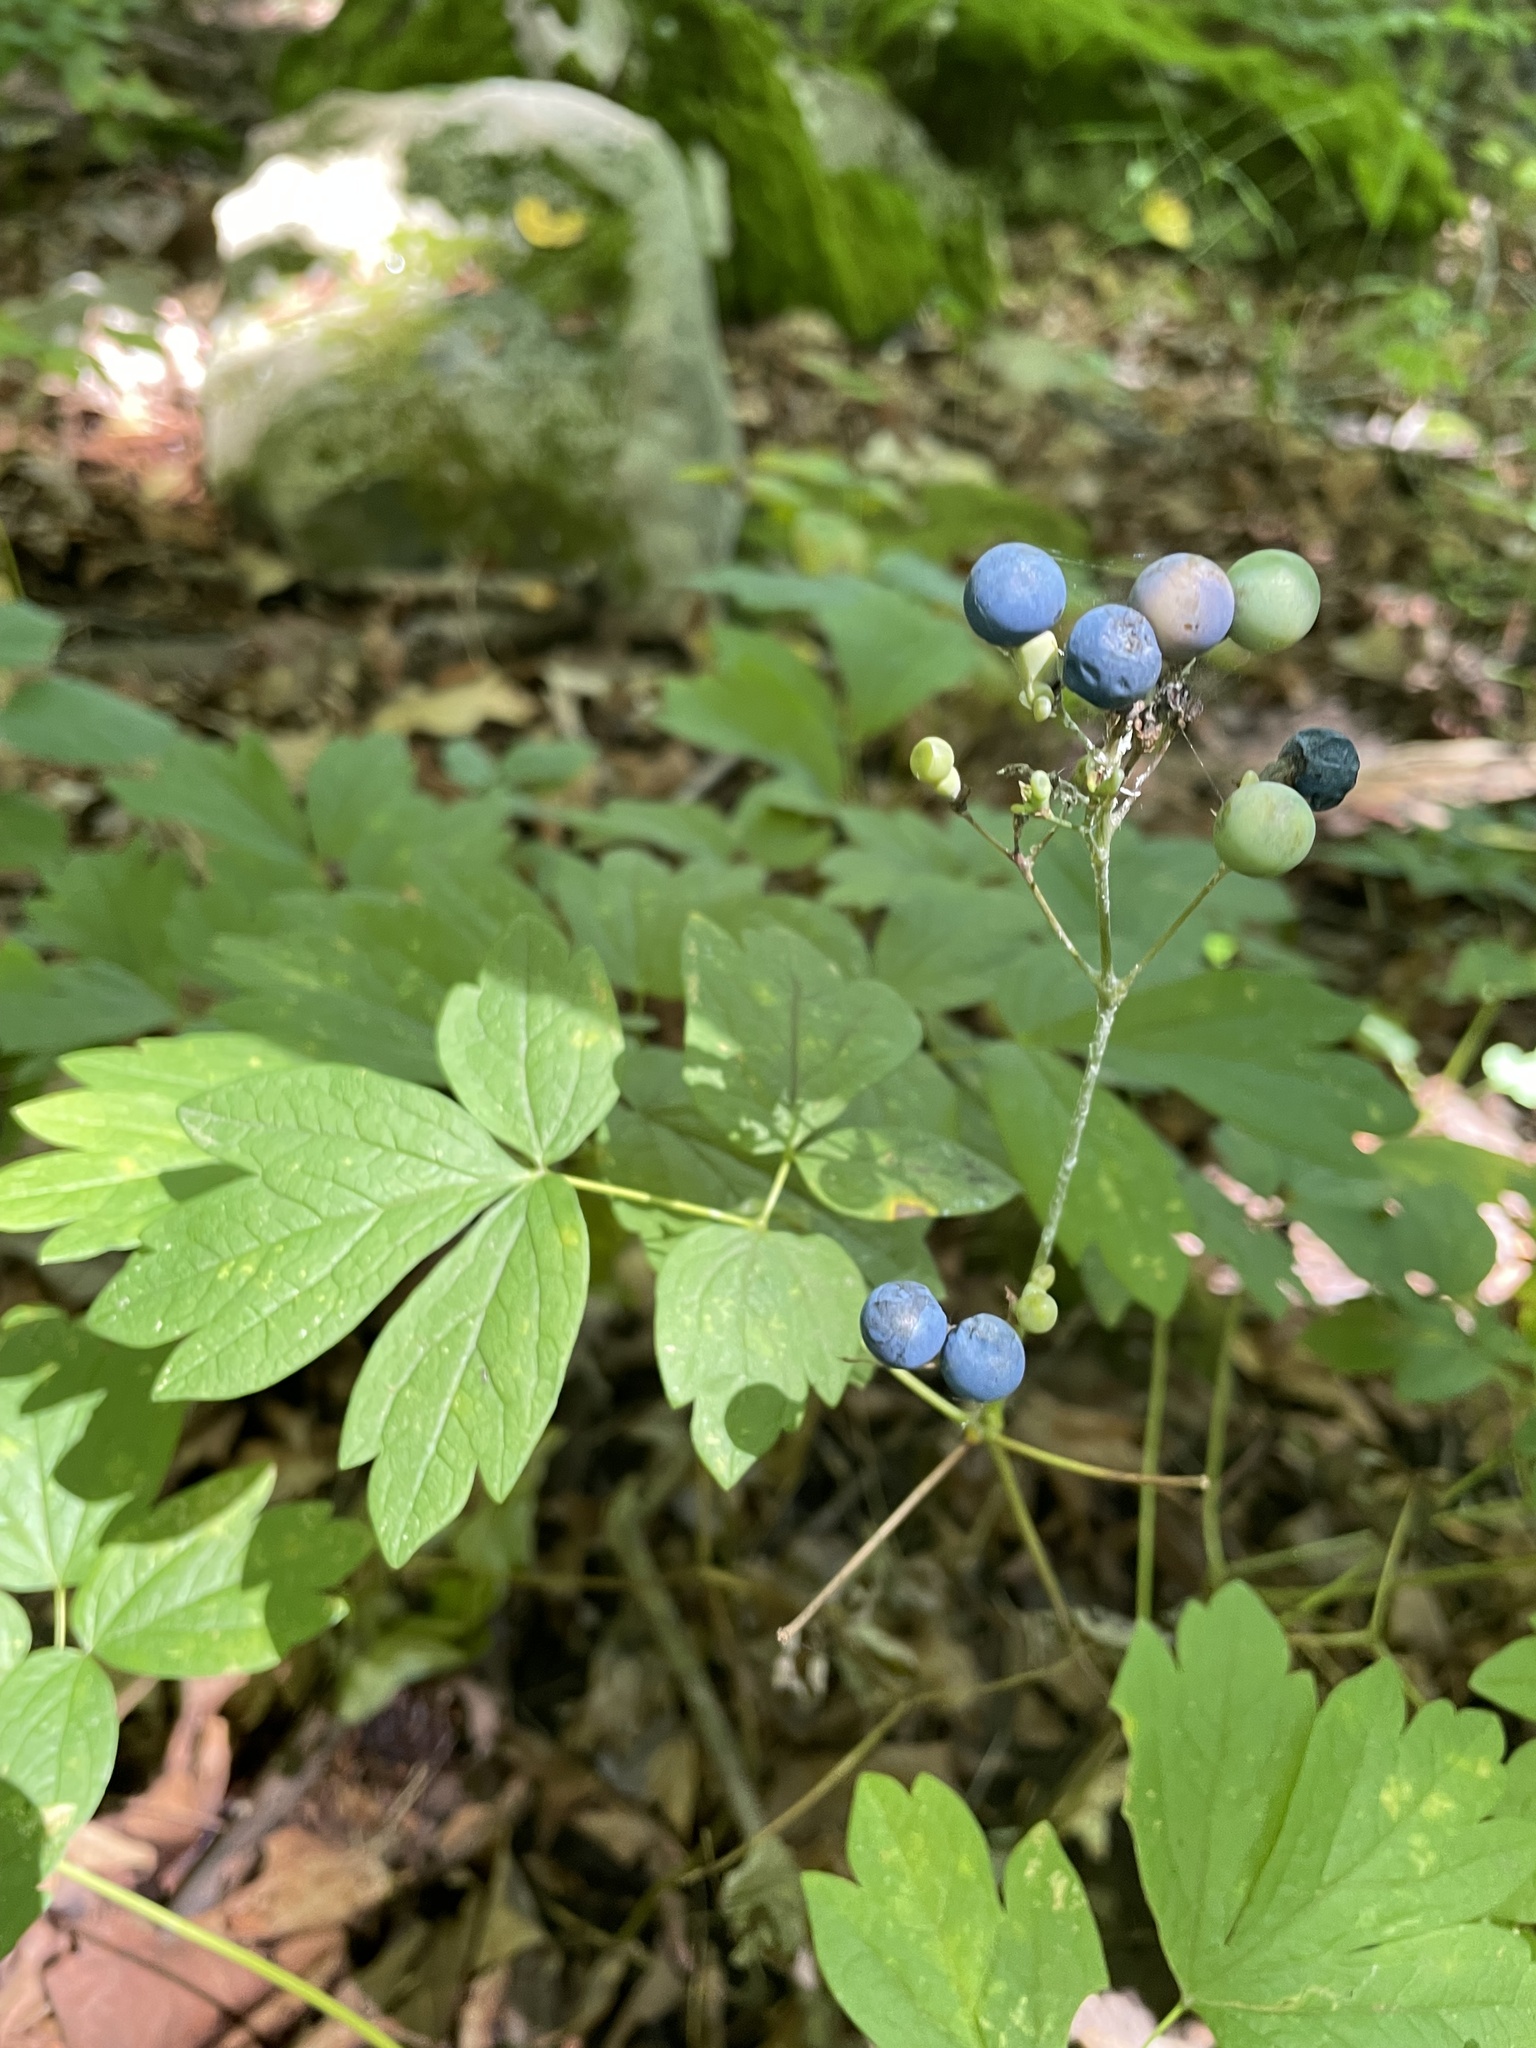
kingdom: Plantae
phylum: Tracheophyta
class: Magnoliopsida
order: Ranunculales
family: Berberidaceae
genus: Caulophyllum
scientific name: Caulophyllum thalictroides
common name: Blue cohosh
